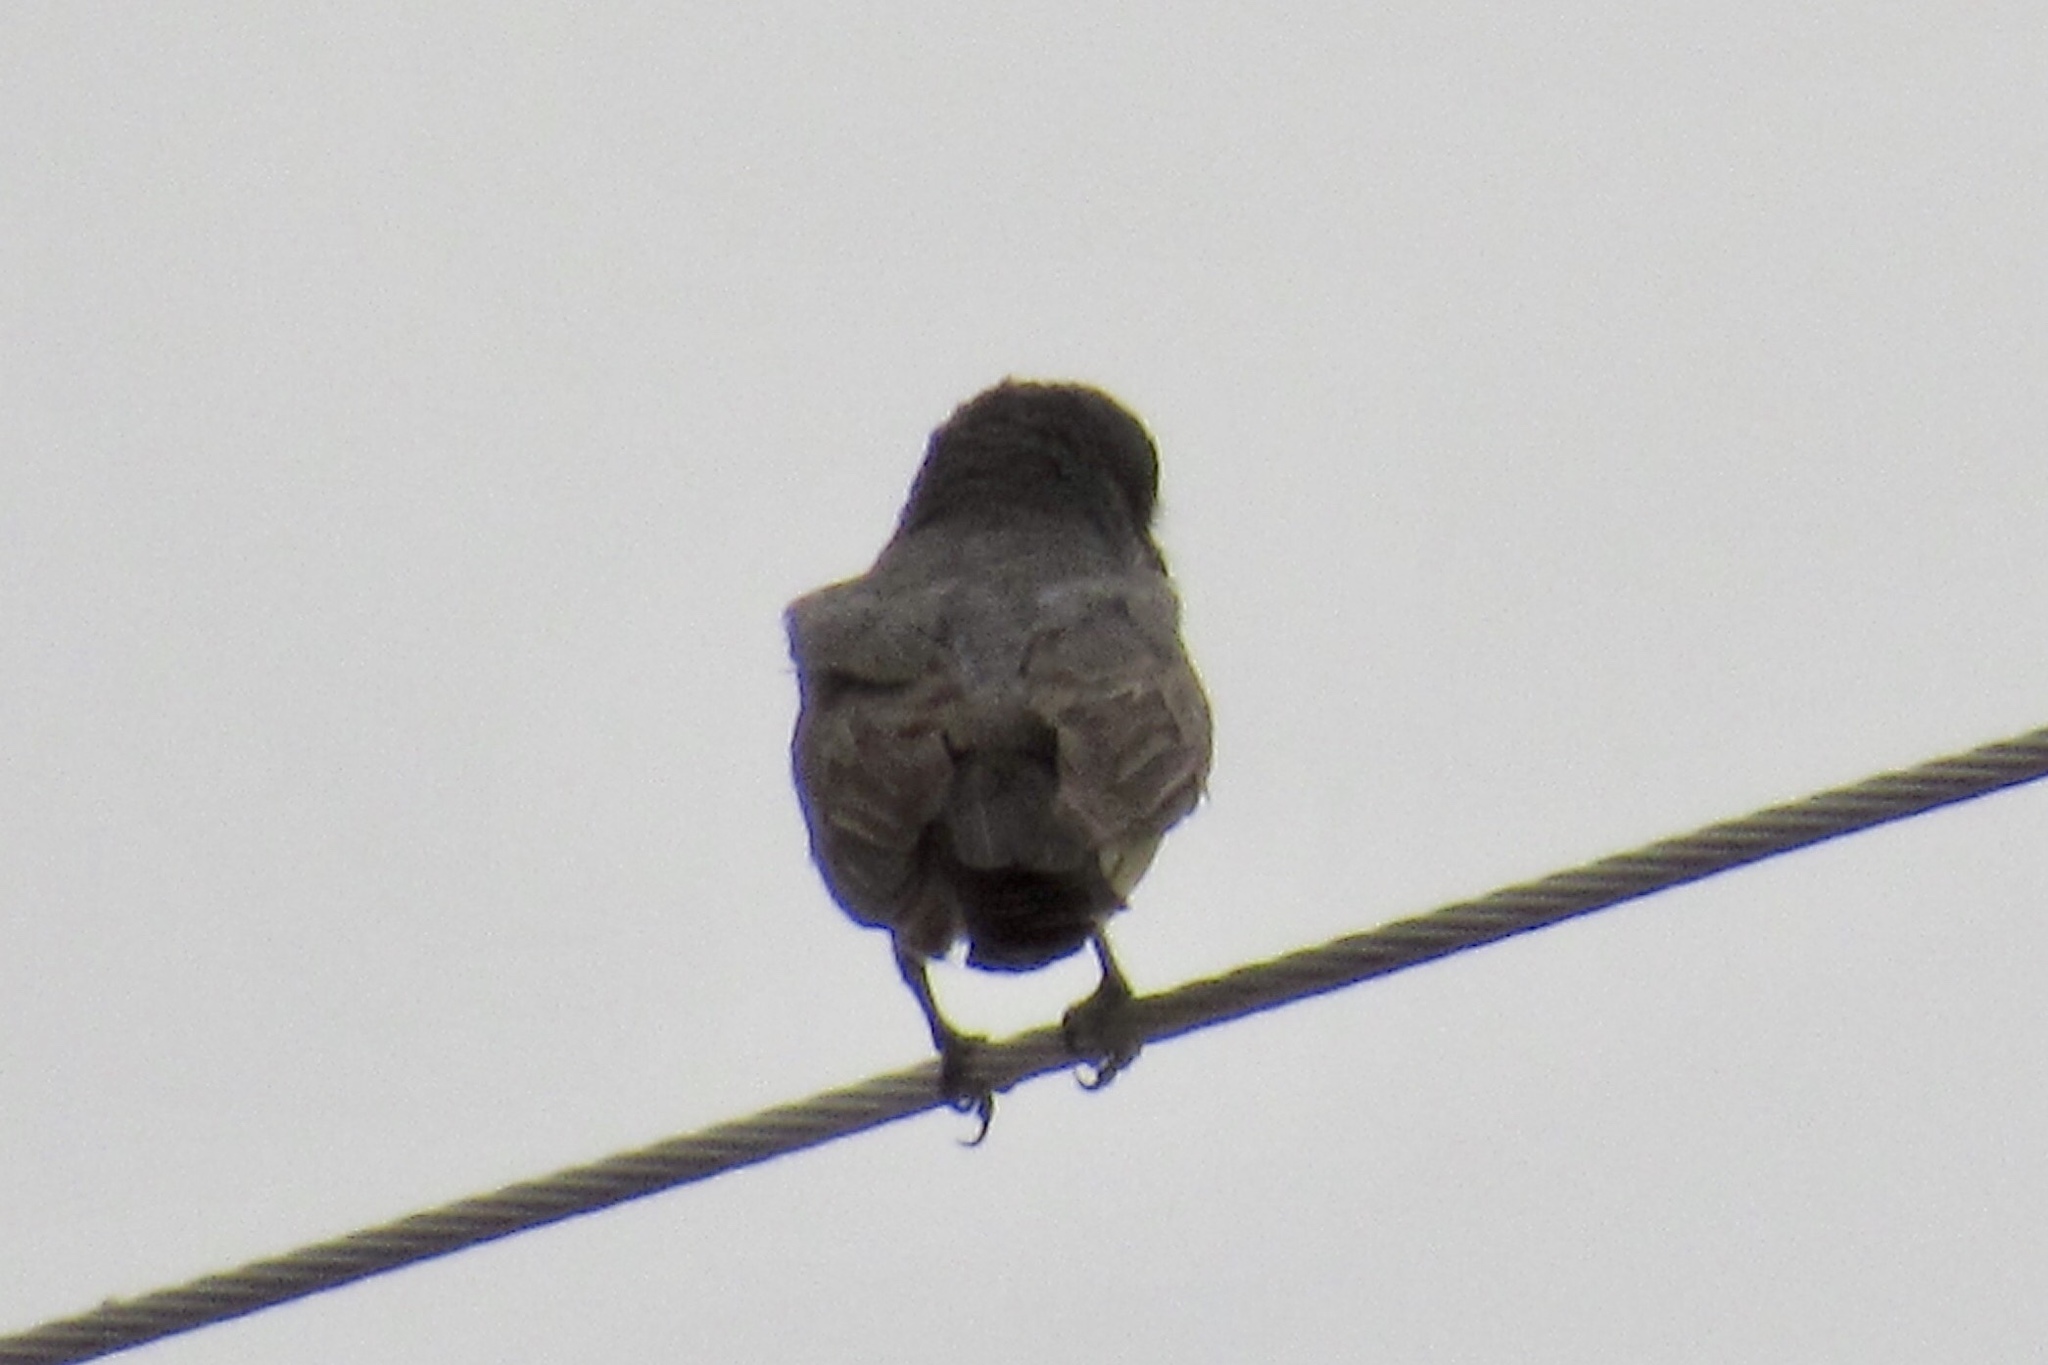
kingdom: Animalia
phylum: Chordata
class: Aves
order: Passeriformes
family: Tyrannidae
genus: Tyrannus
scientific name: Tyrannus vociferans
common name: Cassin's kingbird
